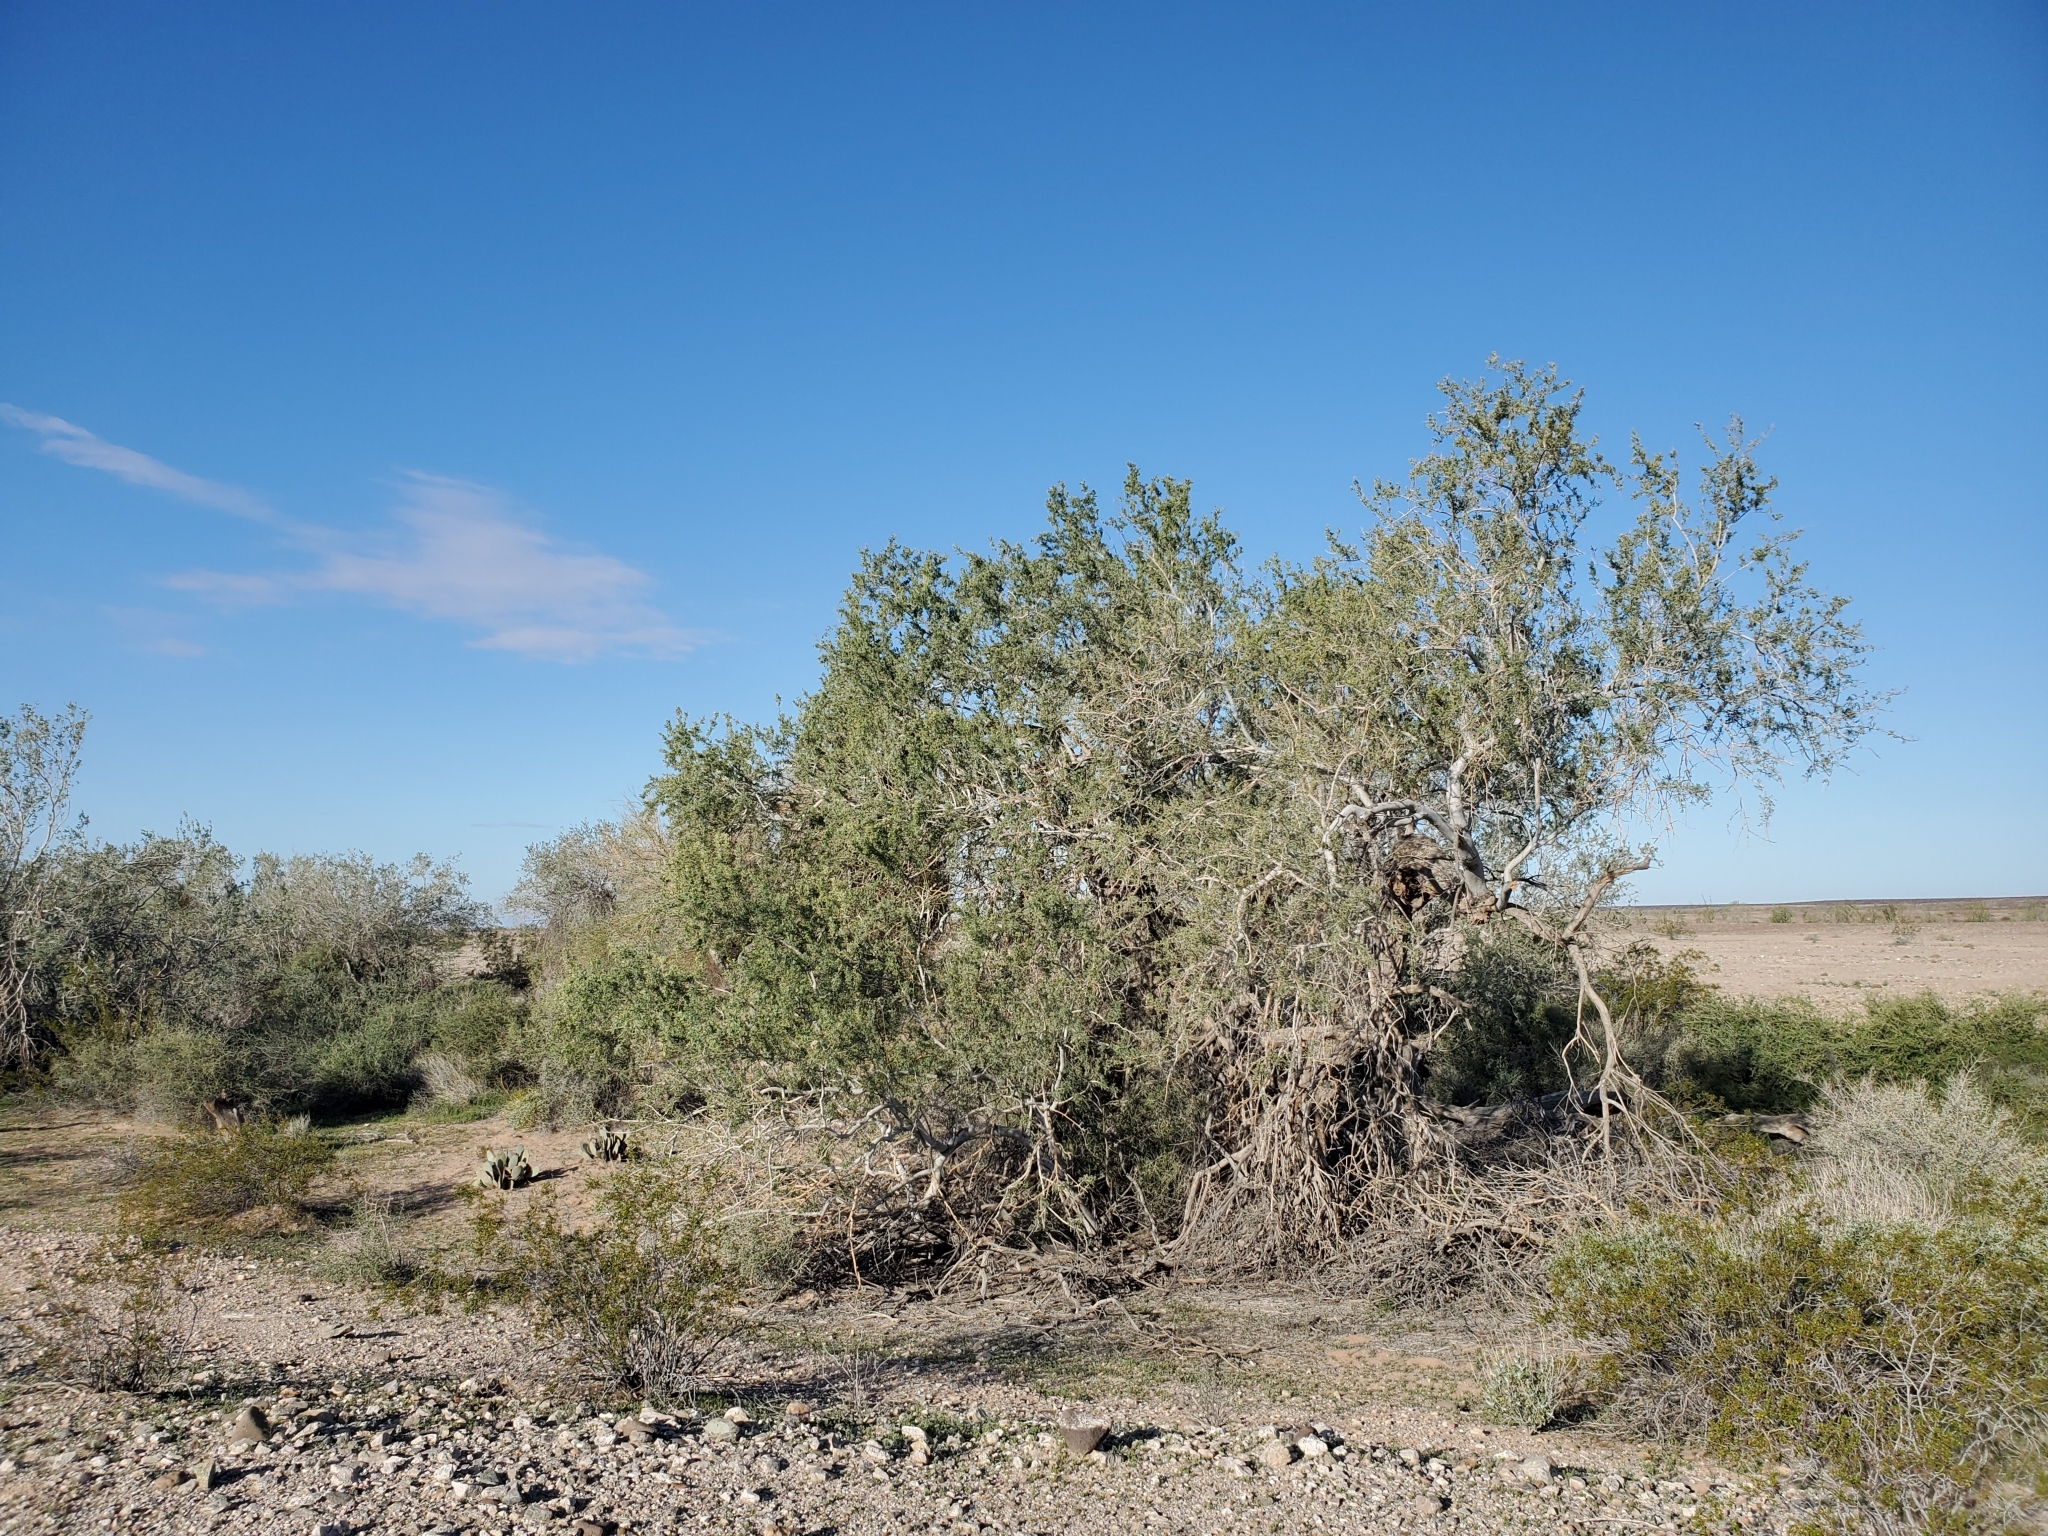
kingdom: Plantae
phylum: Tracheophyta
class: Magnoliopsida
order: Fabales
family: Fabaceae
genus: Olneya
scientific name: Olneya tesota
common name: Desert ironwood
